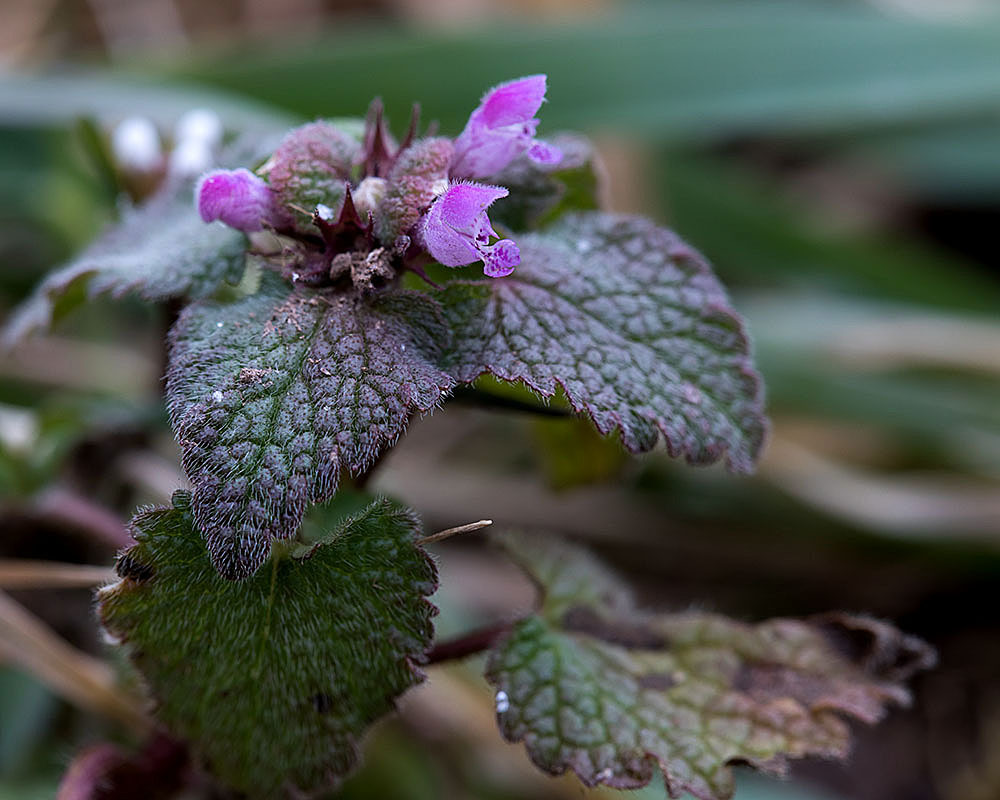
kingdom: Plantae
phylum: Tracheophyta
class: Magnoliopsida
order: Lamiales
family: Lamiaceae
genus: Lamium
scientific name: Lamium purpureum
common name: Red dead-nettle
